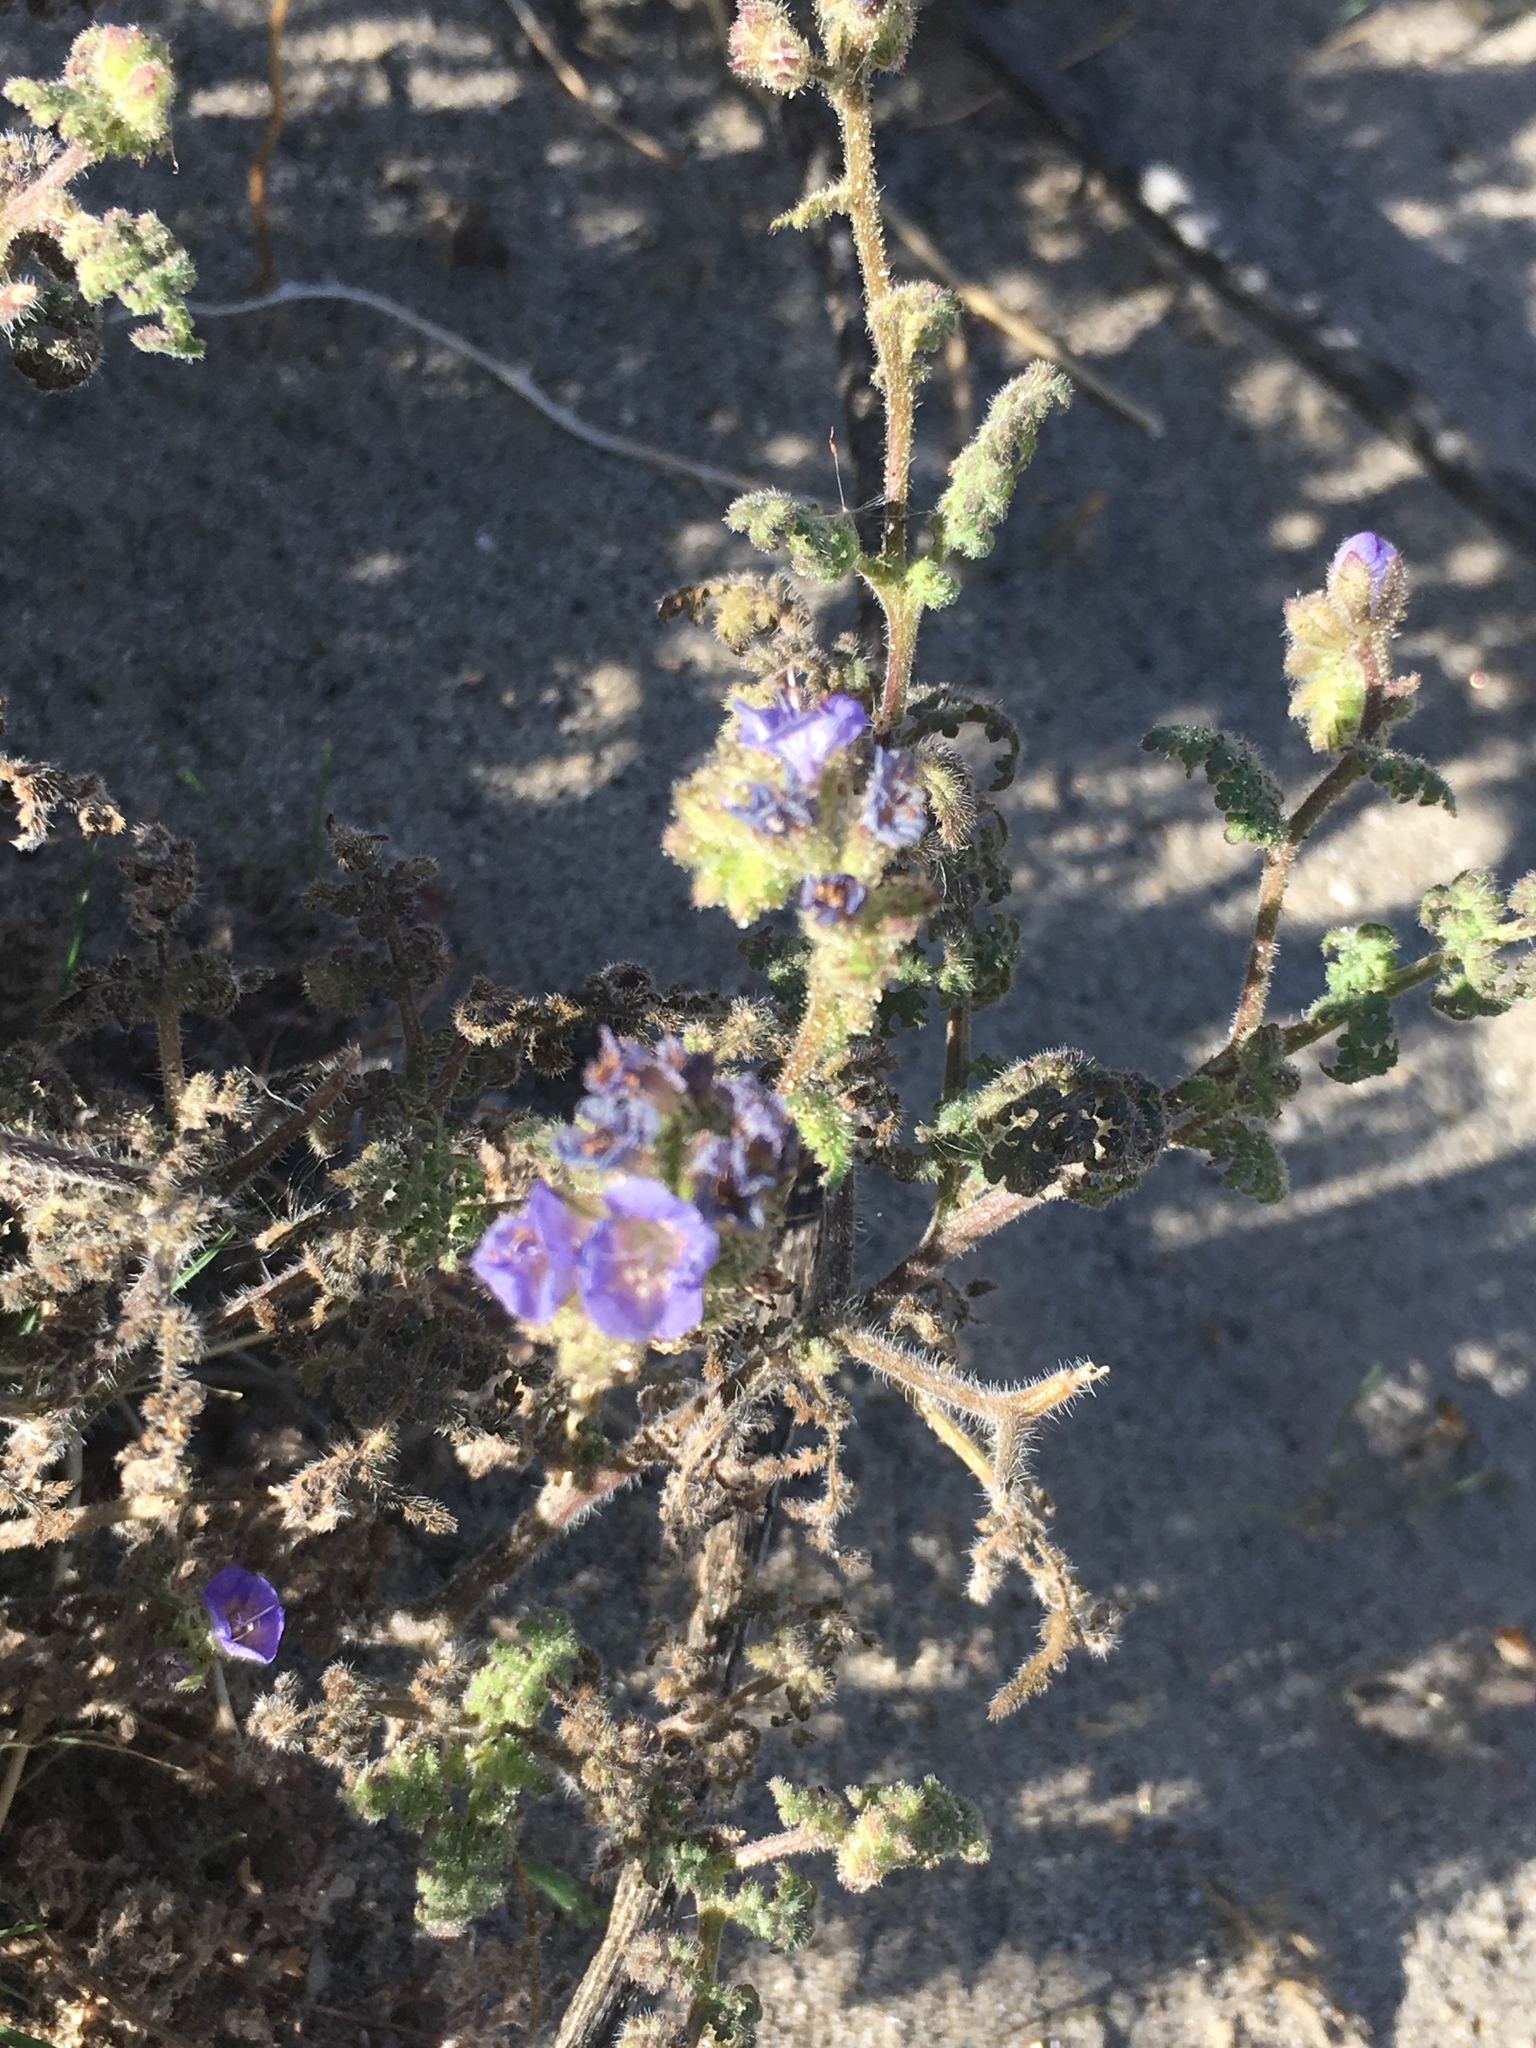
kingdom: Plantae
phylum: Tracheophyta
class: Magnoliopsida
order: Boraginales
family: Hydrophyllaceae
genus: Phacelia
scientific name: Phacelia distans
